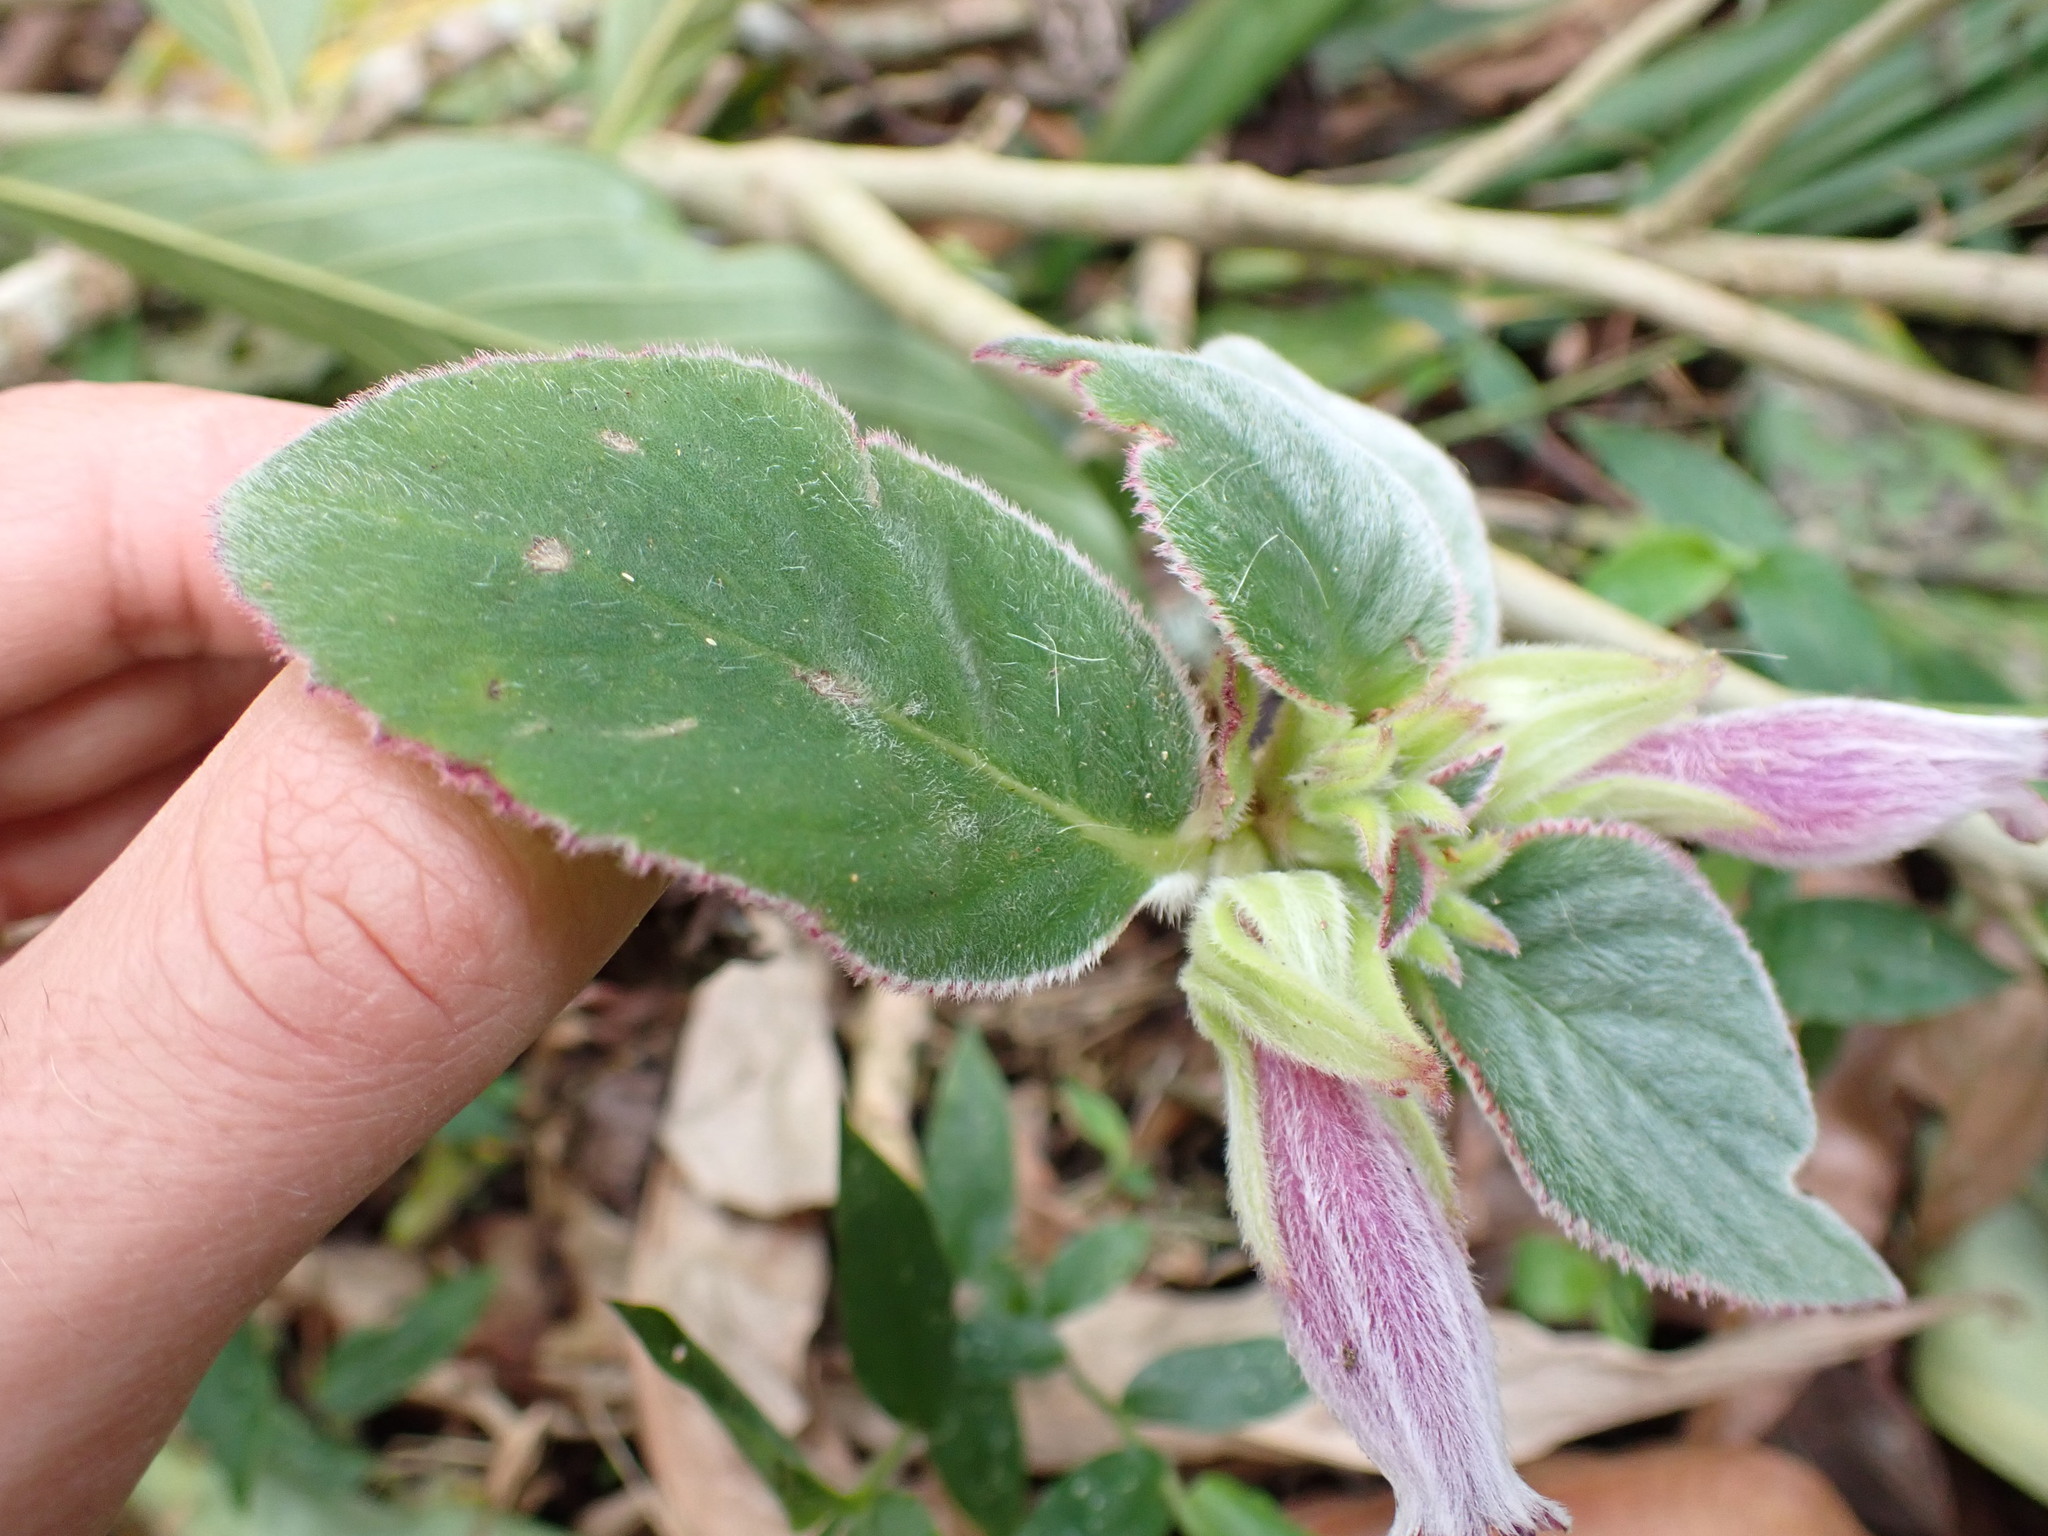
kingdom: Plantae
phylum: Tracheophyta
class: Magnoliopsida
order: Lamiales
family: Gesneriaceae
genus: Columnea
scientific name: Columnea lophophora
